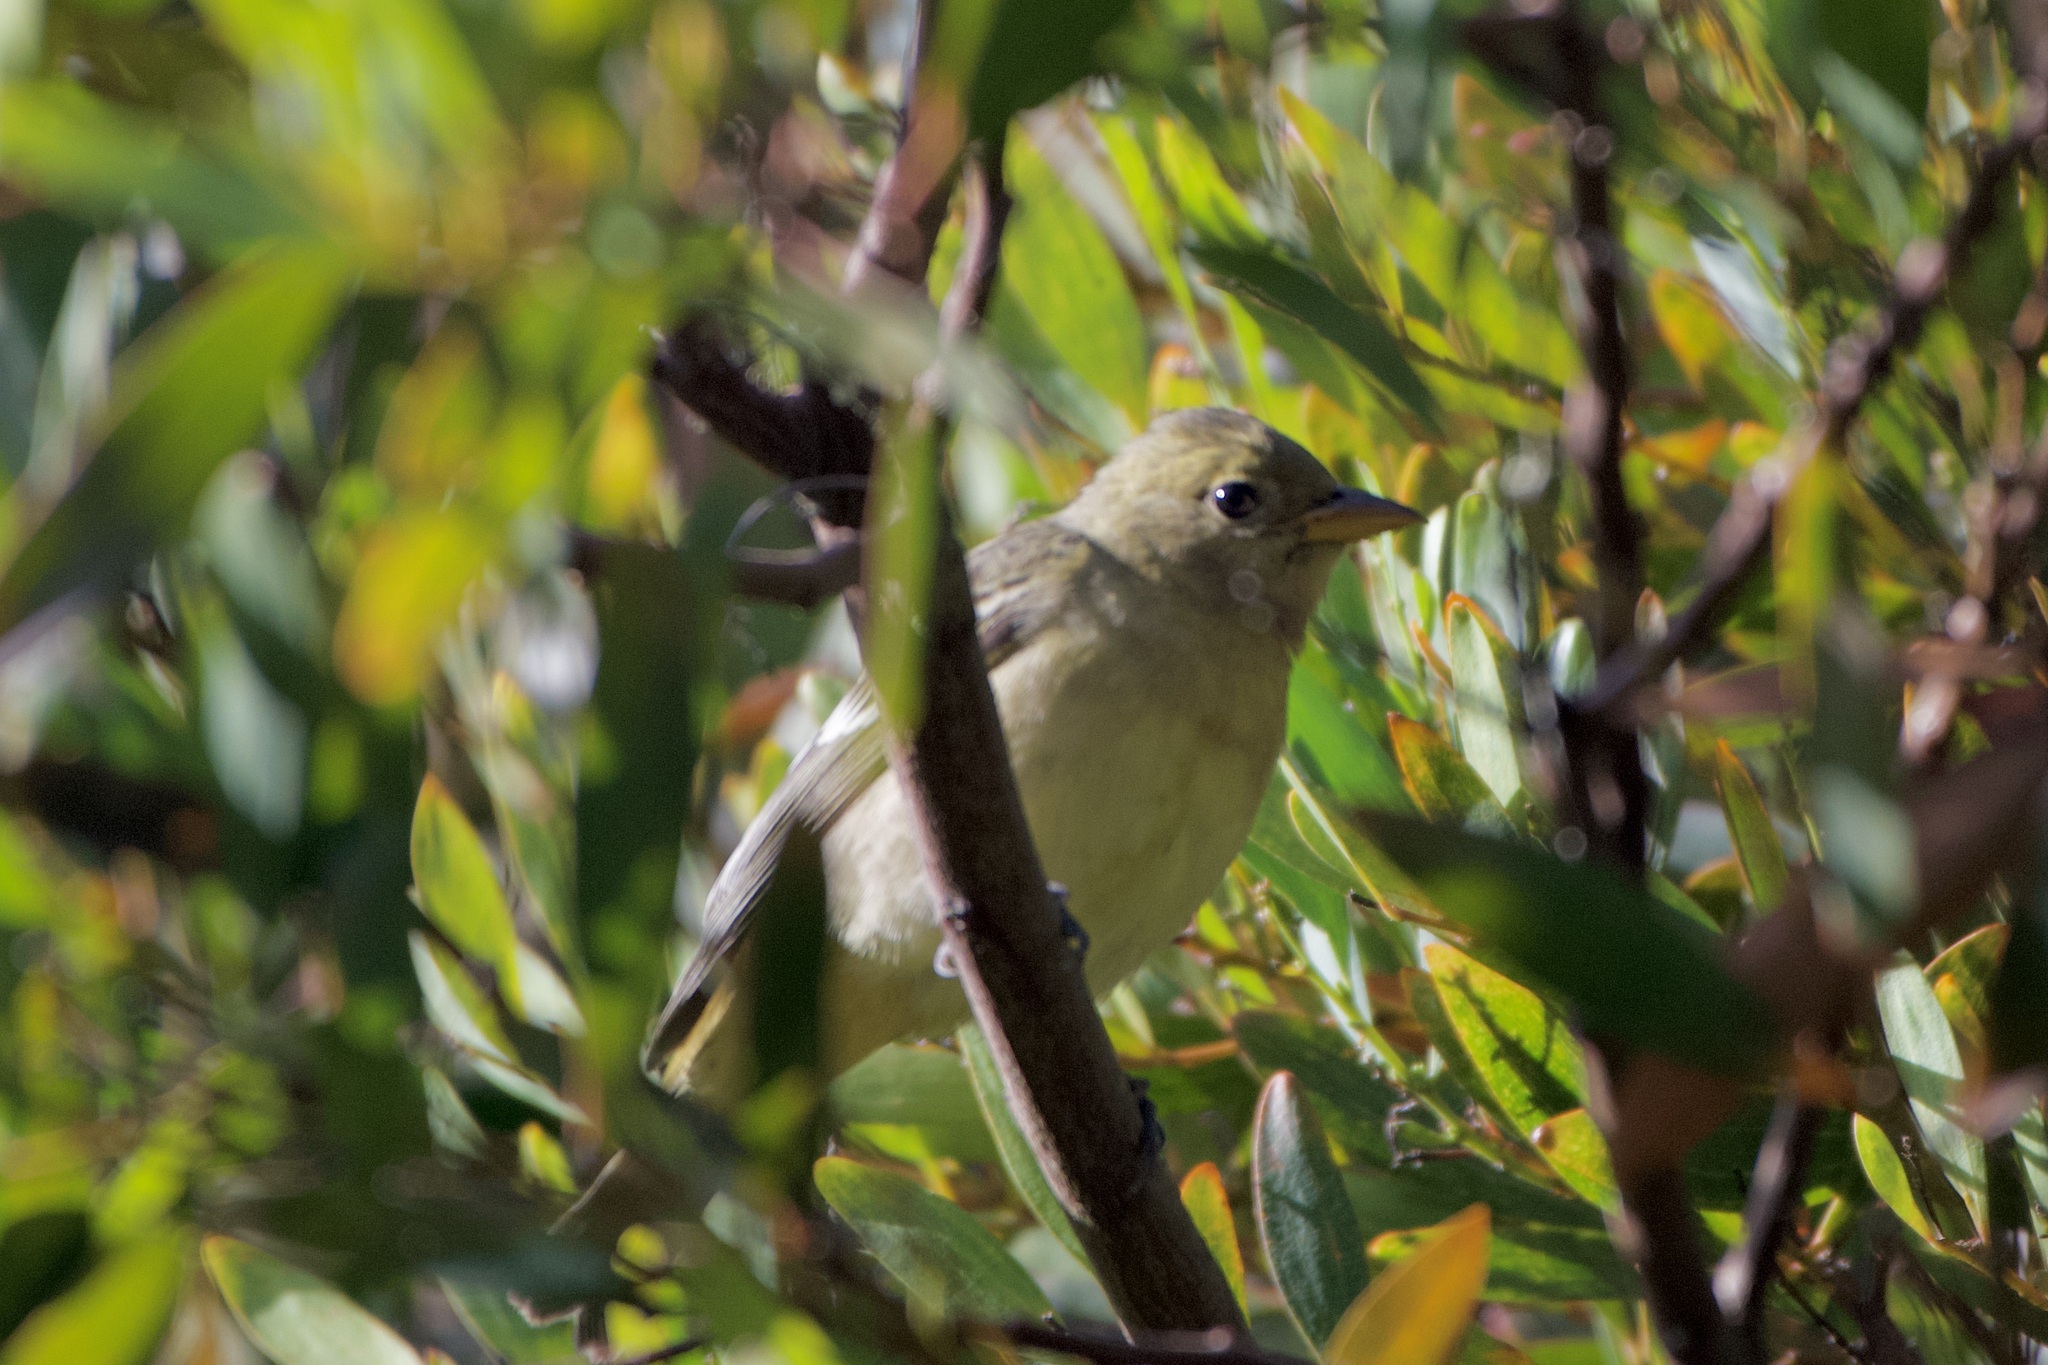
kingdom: Animalia
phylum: Chordata
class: Aves
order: Passeriformes
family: Cardinalidae
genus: Piranga
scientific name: Piranga ludoviciana
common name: Western tanager
